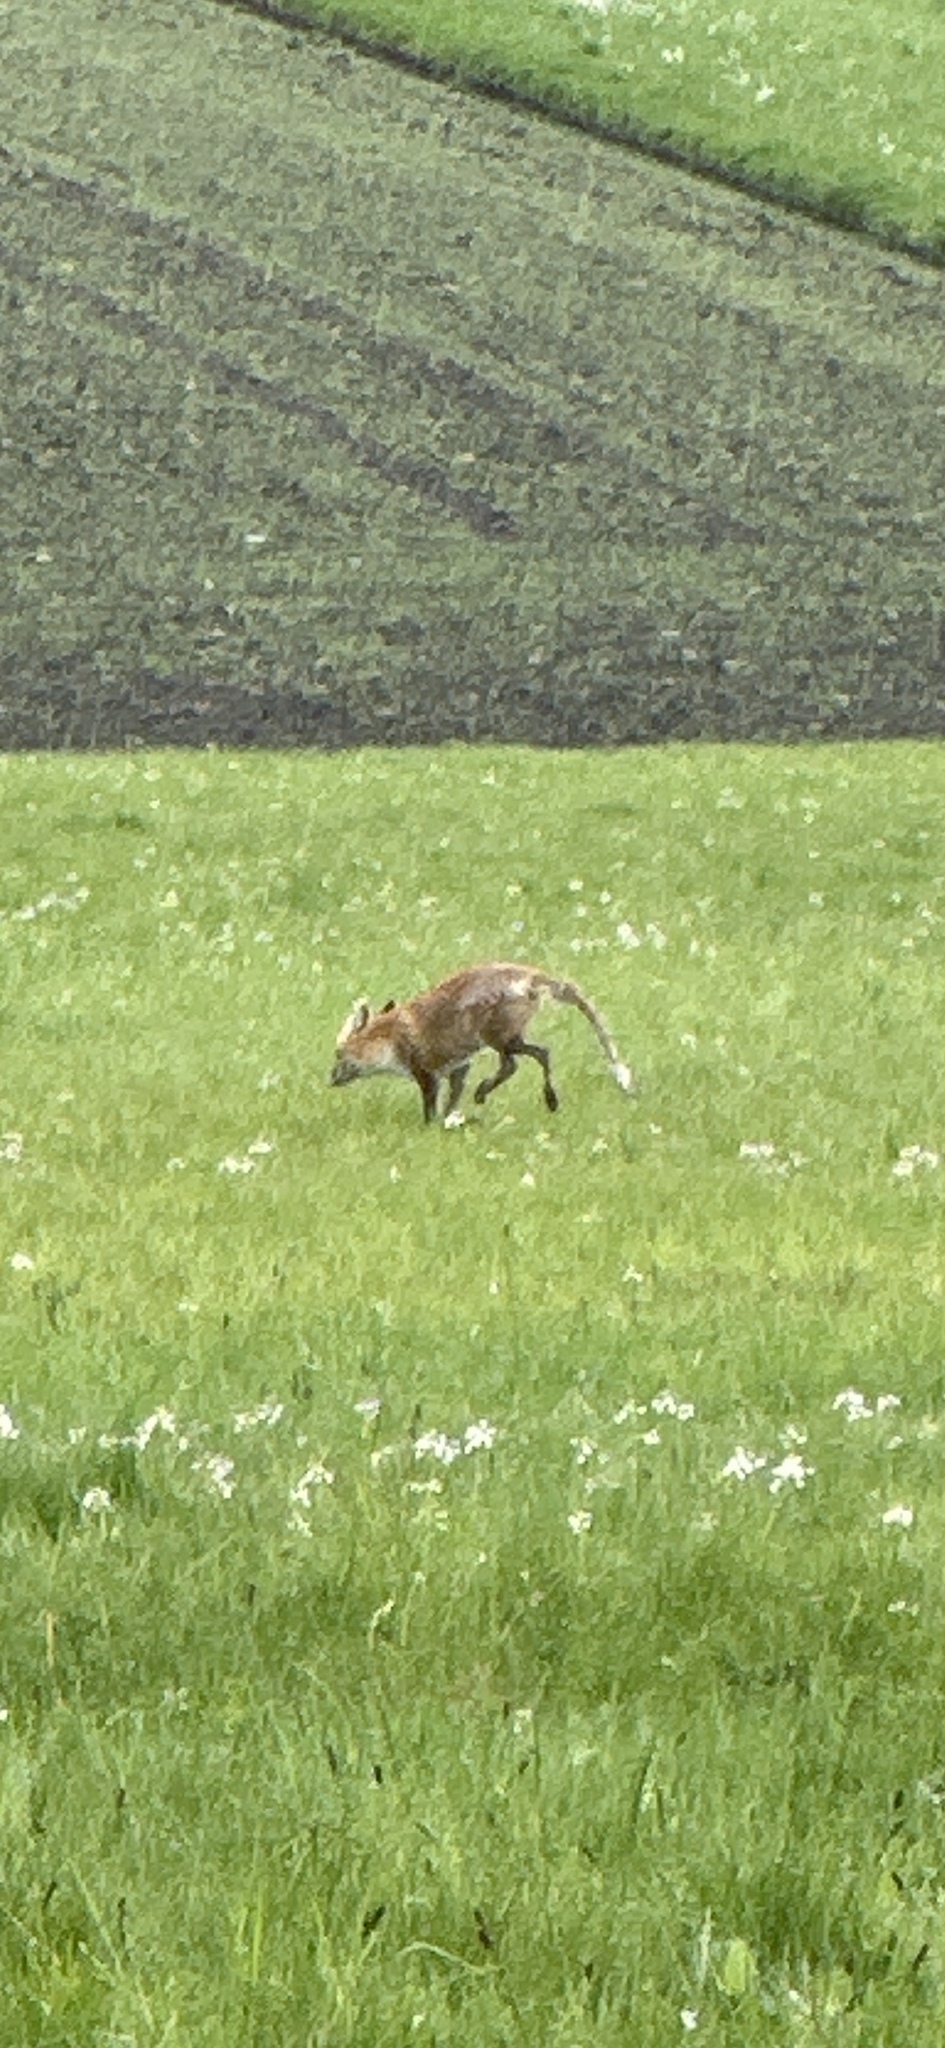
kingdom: Animalia
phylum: Chordata
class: Mammalia
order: Carnivora
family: Canidae
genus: Vulpes
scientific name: Vulpes vulpes
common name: Red fox
